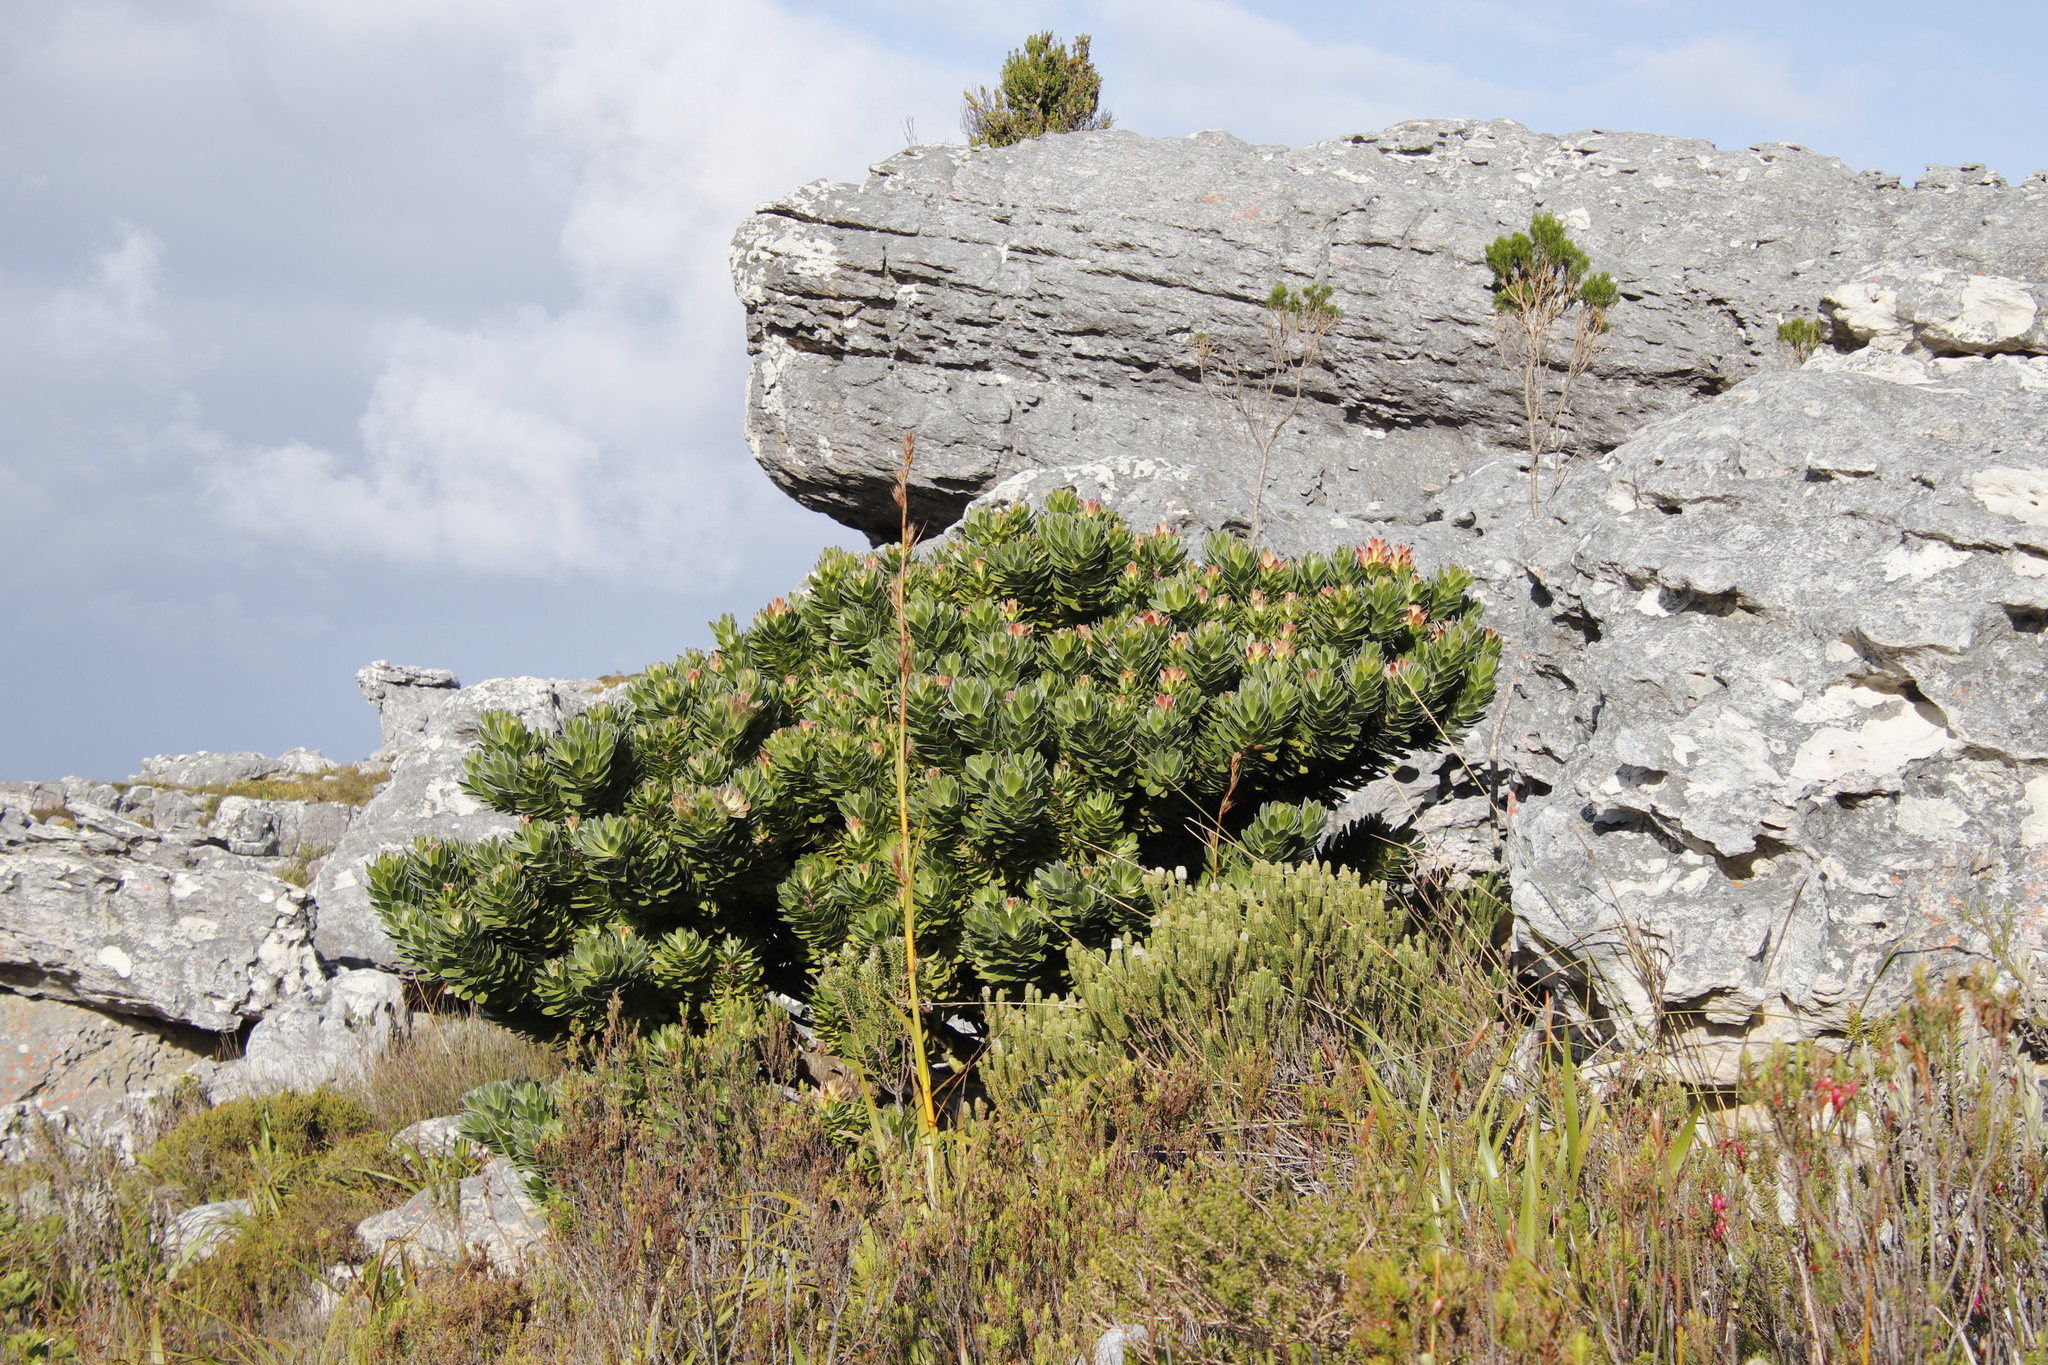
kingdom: Plantae
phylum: Tracheophyta
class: Liliopsida
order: Poales
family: Cyperaceae
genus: Tetraria
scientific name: Tetraria thermalis
